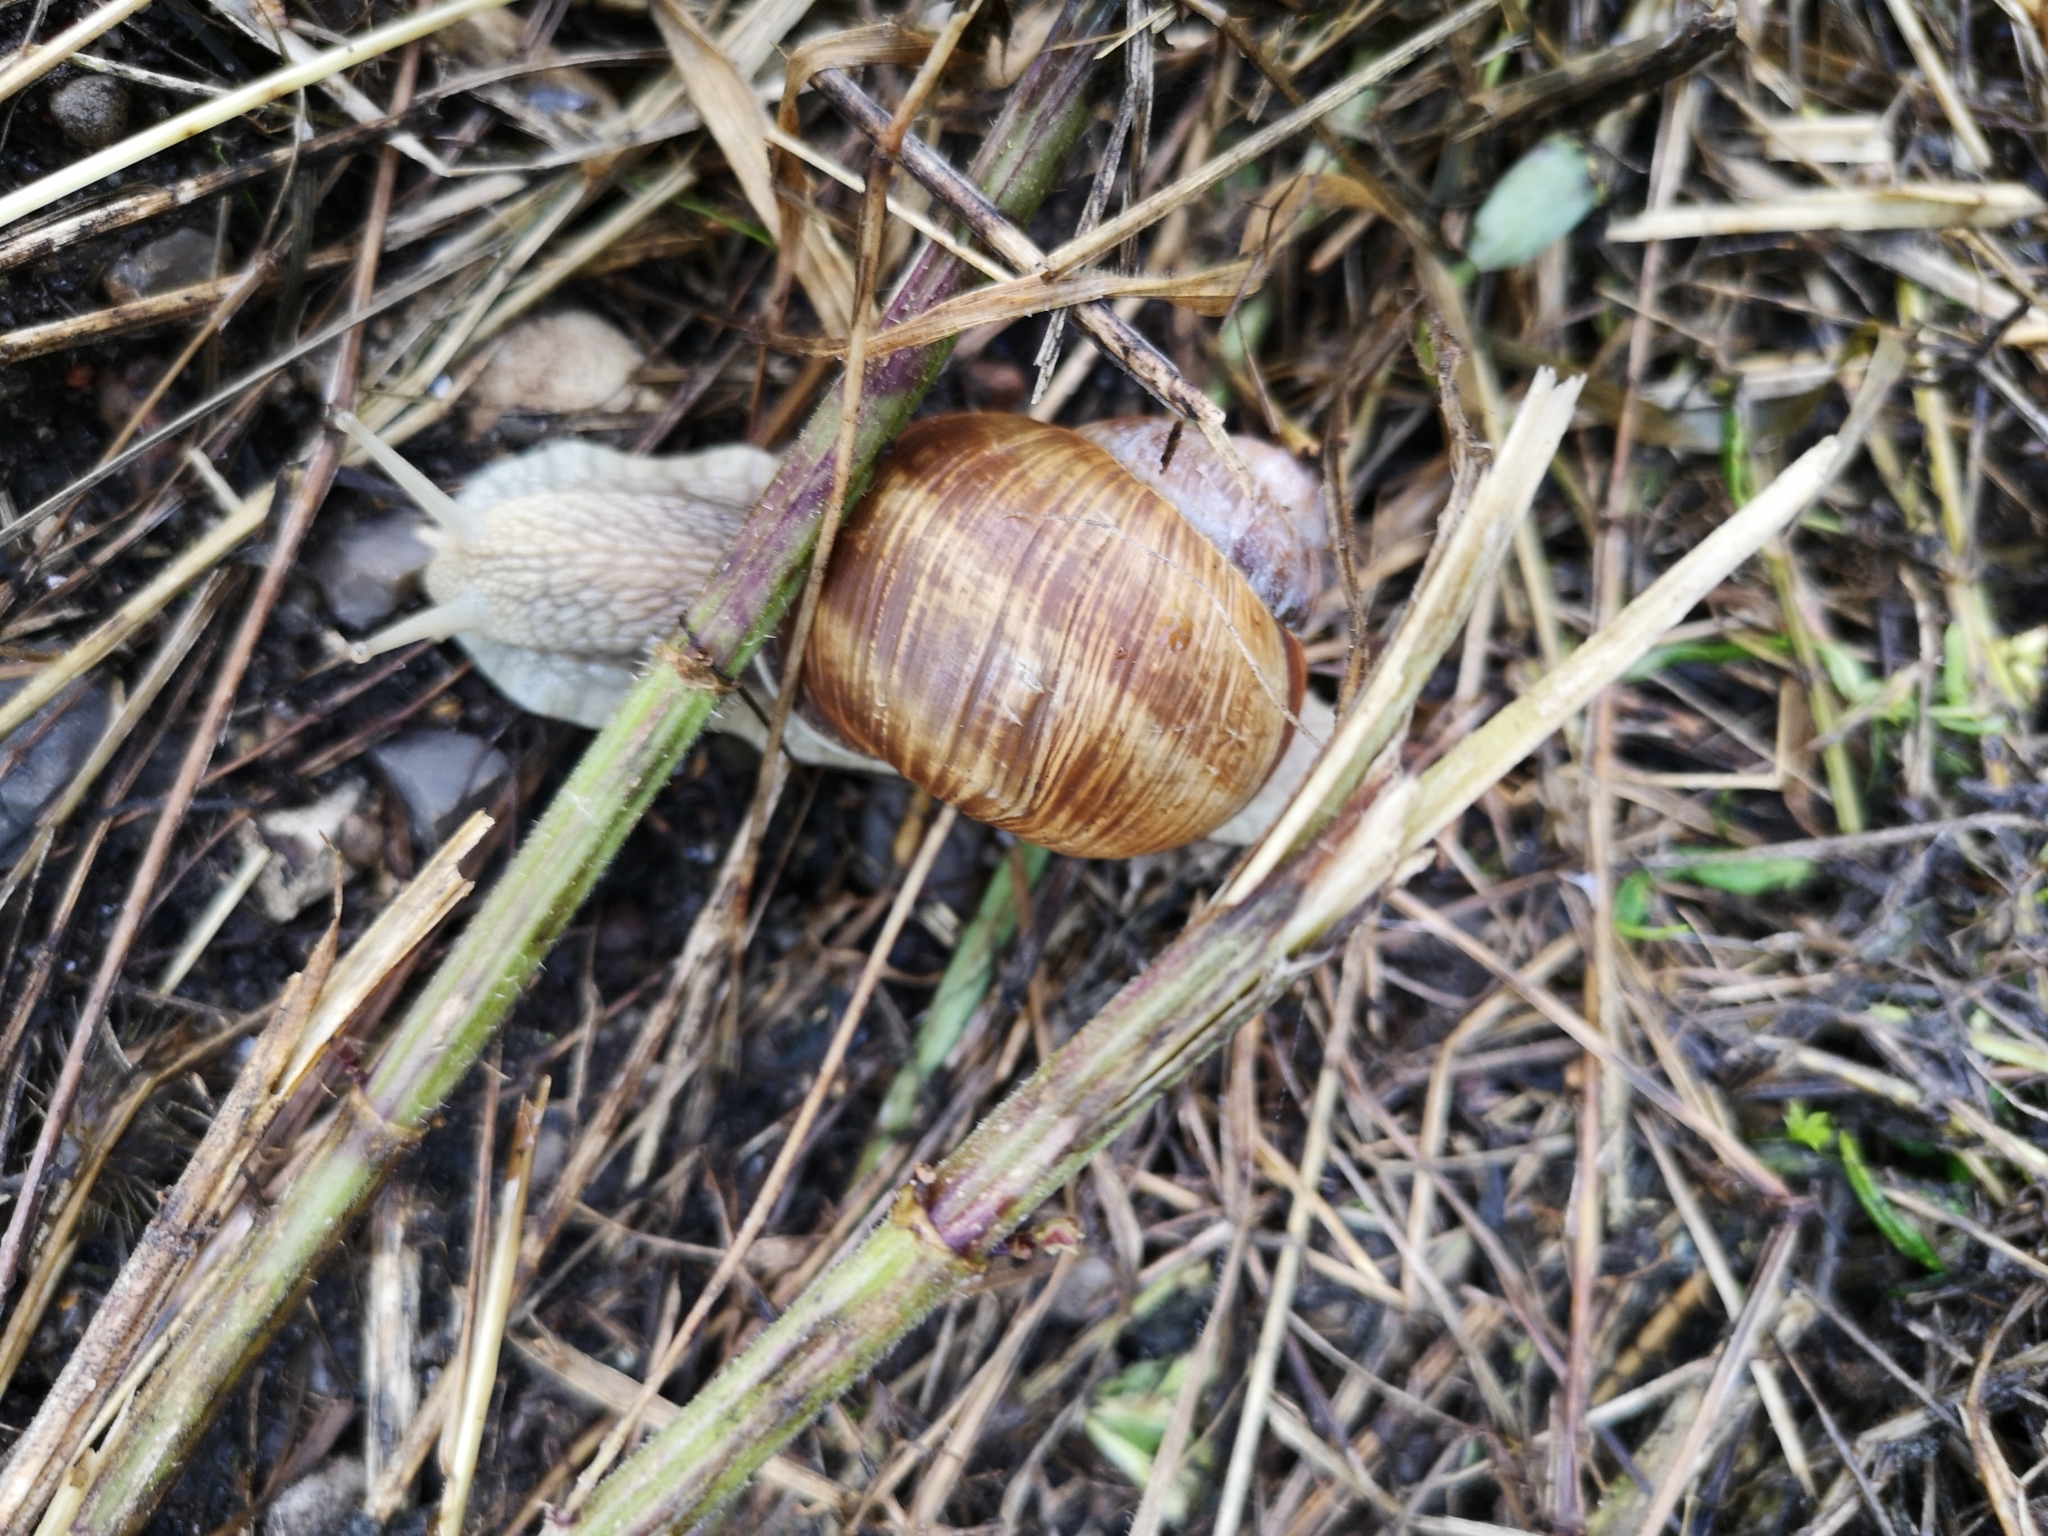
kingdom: Animalia
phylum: Mollusca
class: Gastropoda
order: Stylommatophora
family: Helicidae
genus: Helix
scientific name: Helix pomatia
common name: Roman snail
